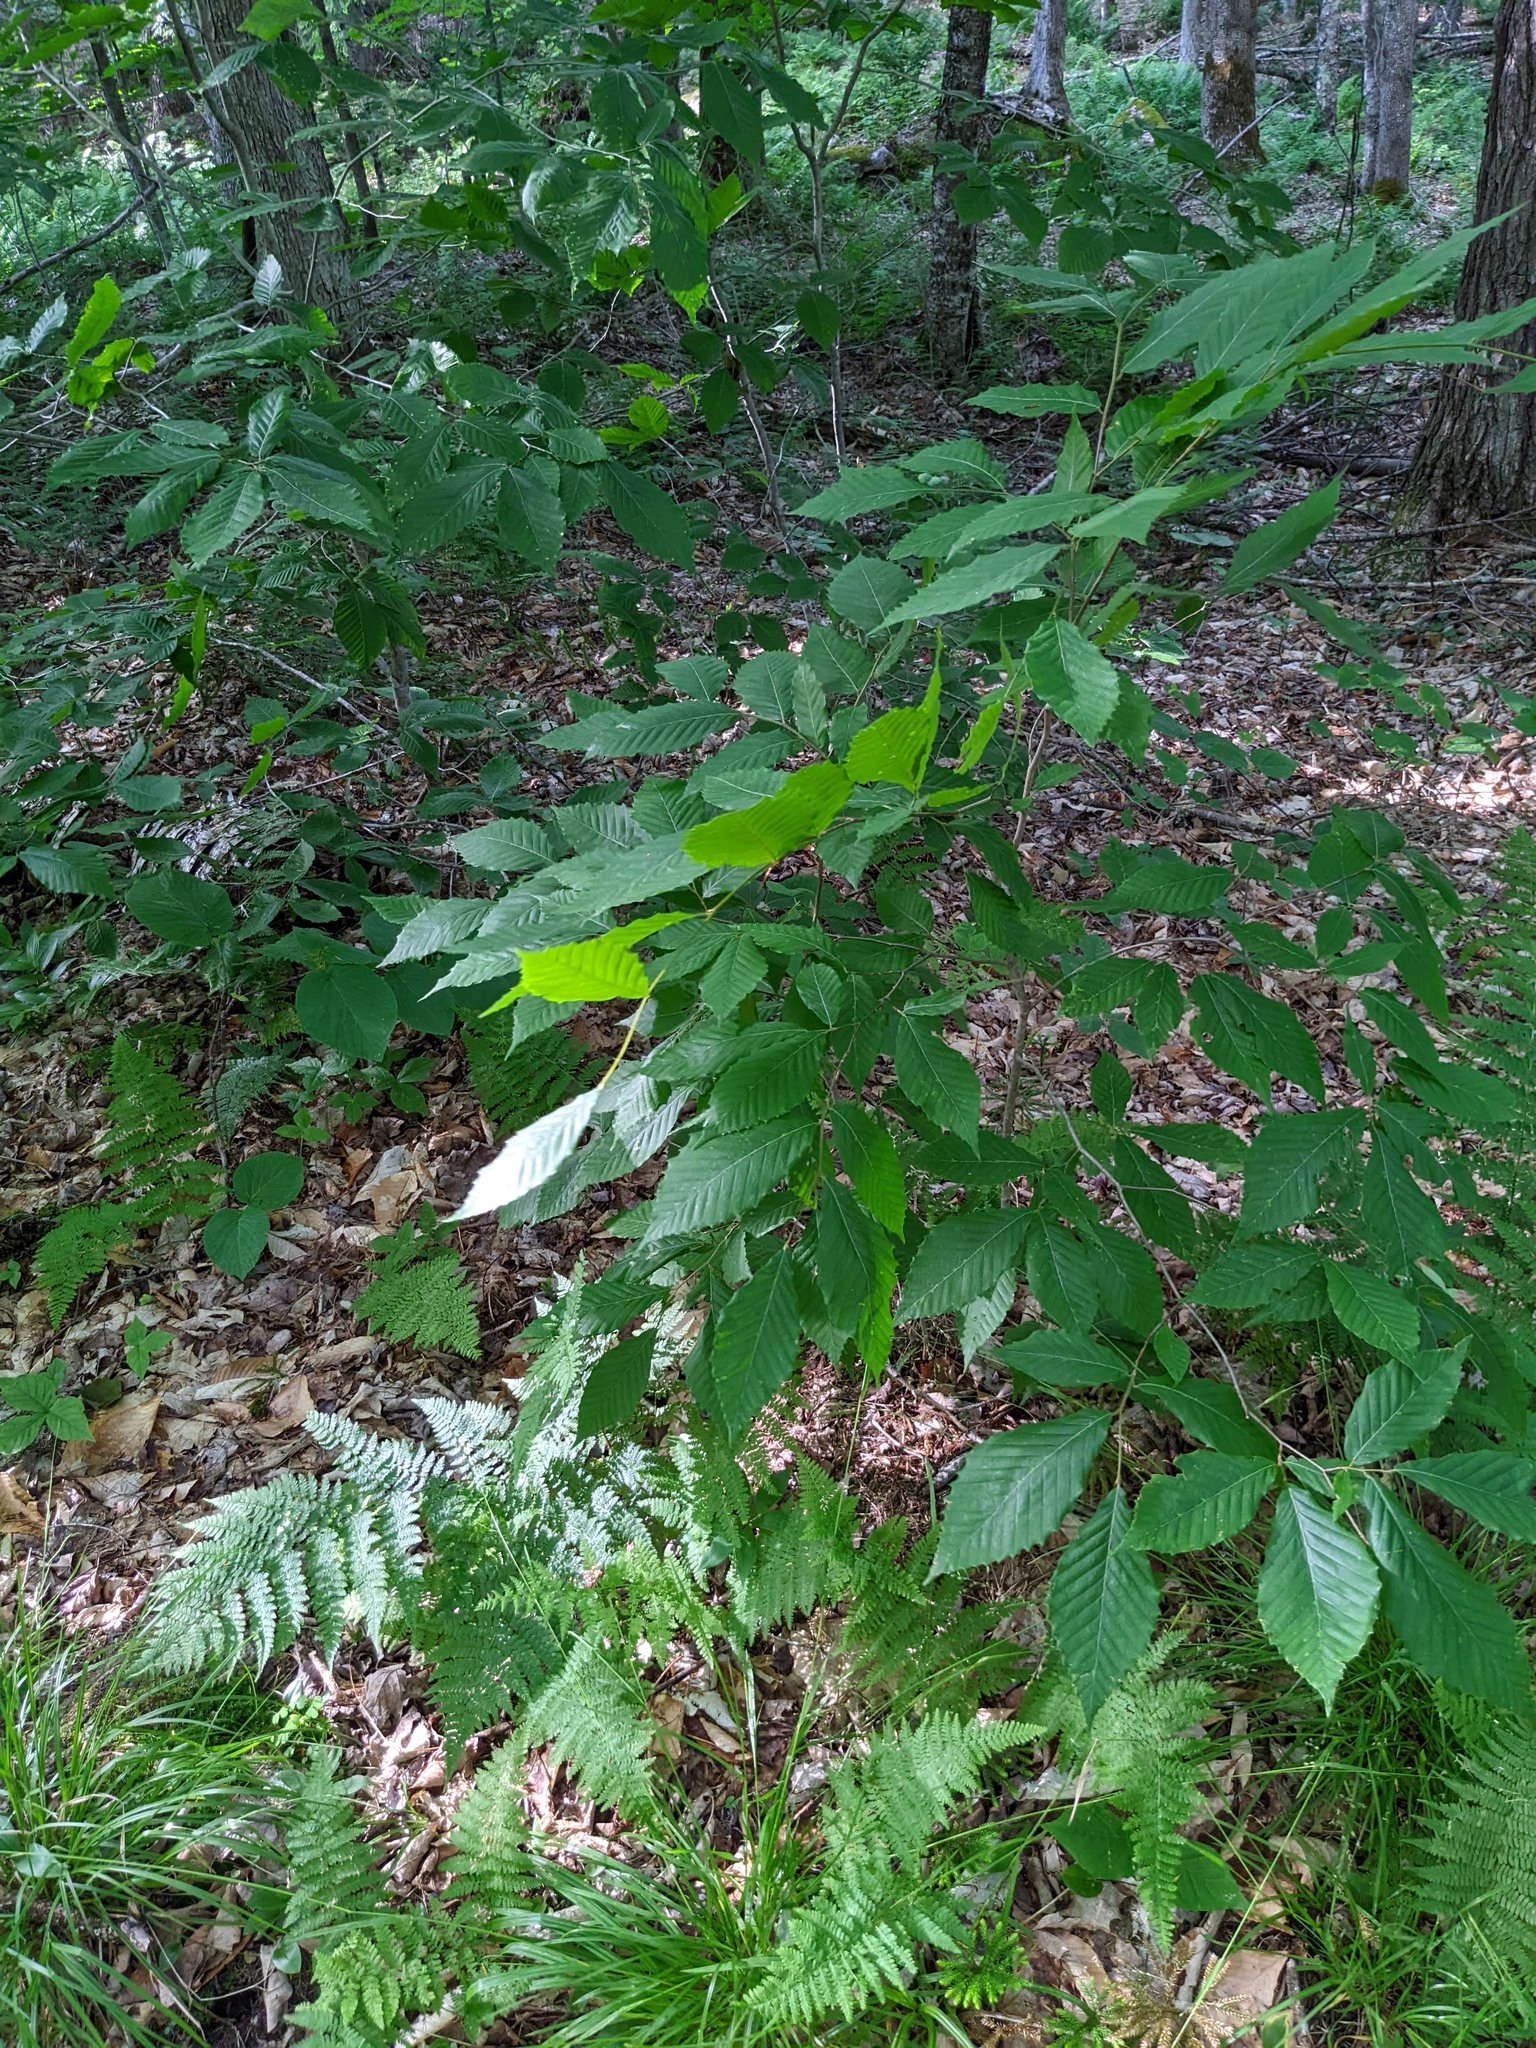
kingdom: Plantae
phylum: Tracheophyta
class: Magnoliopsida
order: Fagales
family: Fagaceae
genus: Fagus
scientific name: Fagus grandifolia
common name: American beech
